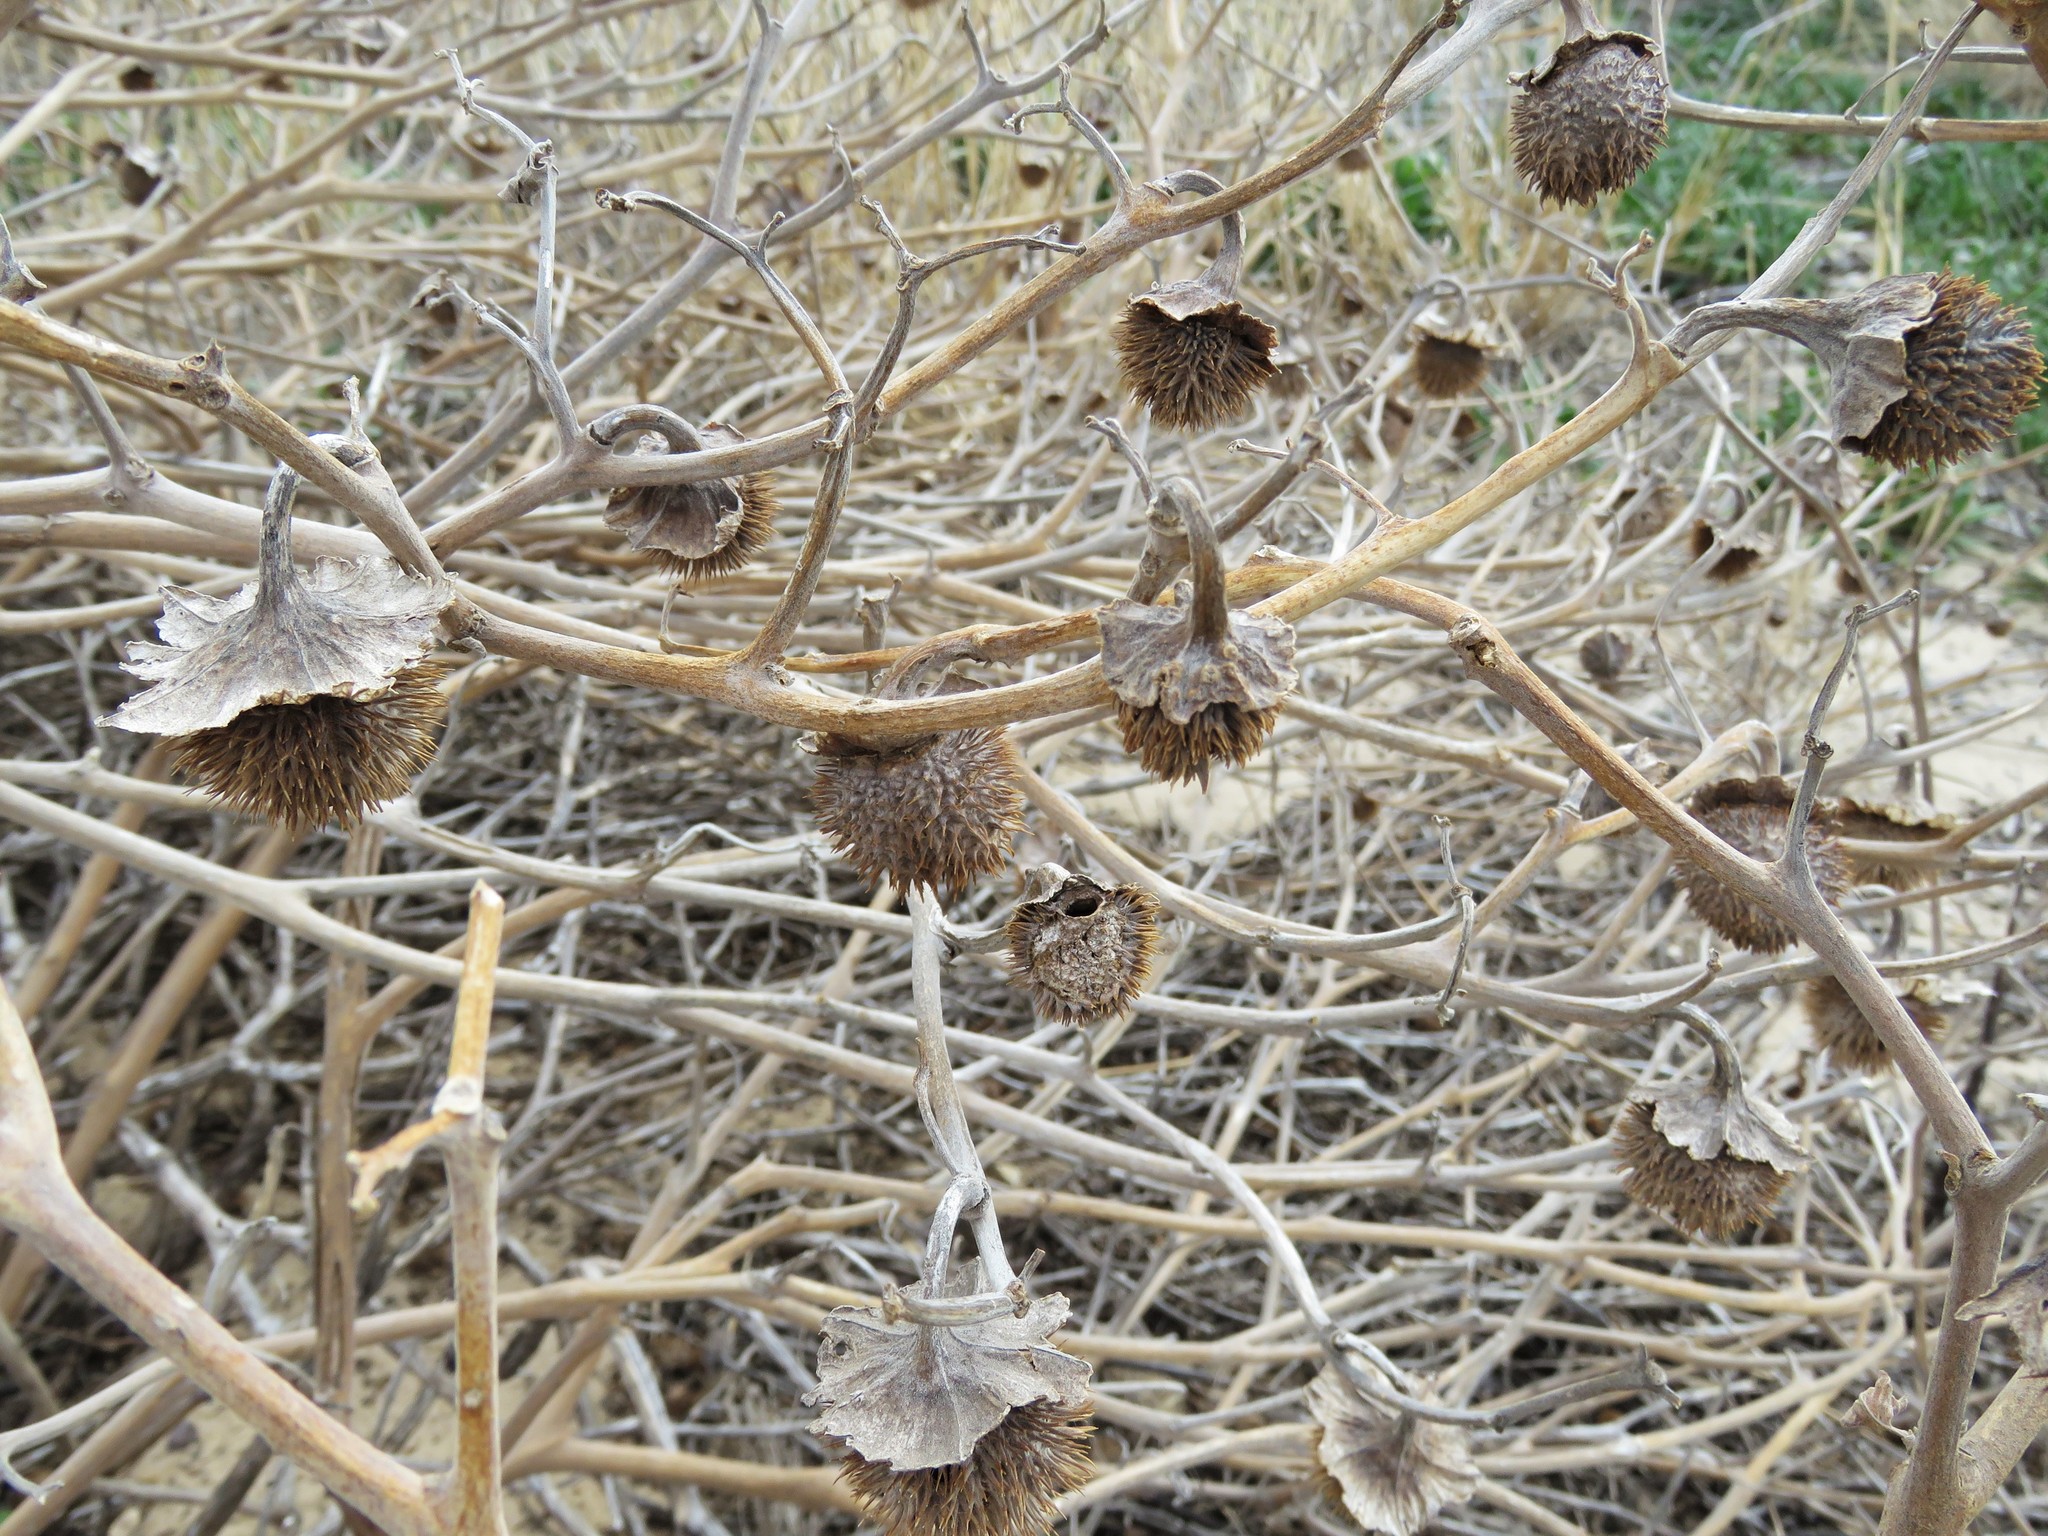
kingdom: Plantae
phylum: Tracheophyta
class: Magnoliopsida
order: Solanales
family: Solanaceae
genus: Datura
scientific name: Datura wrightii
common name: Sacred thorn-apple
